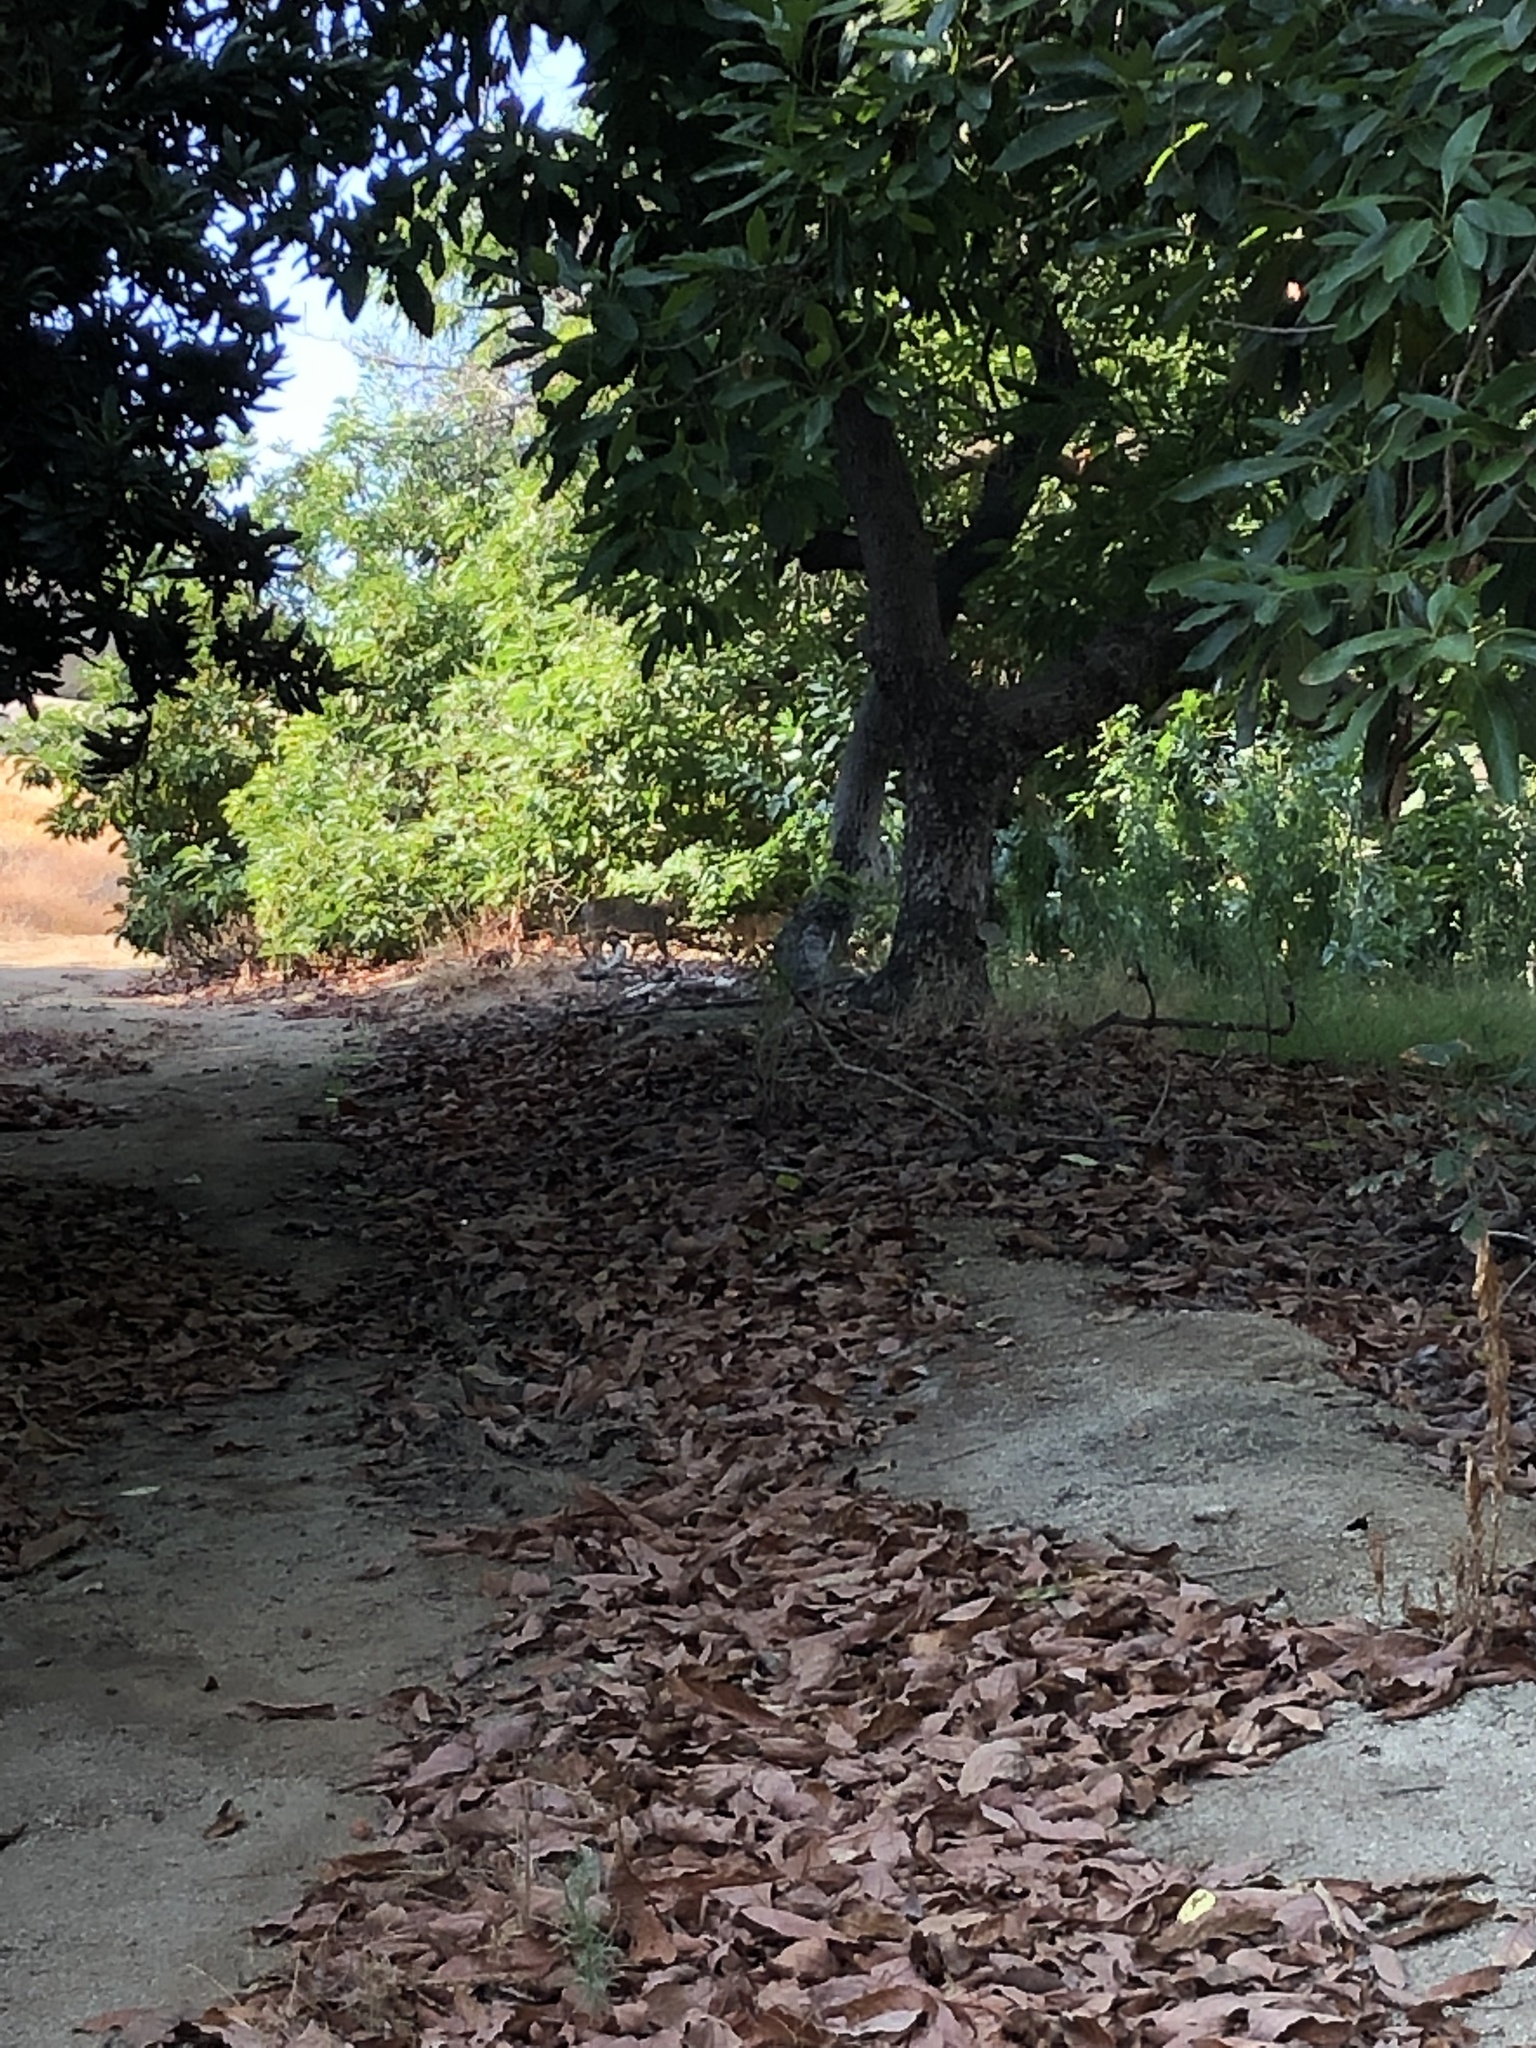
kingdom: Animalia
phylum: Chordata
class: Mammalia
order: Carnivora
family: Felidae
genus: Lynx
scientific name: Lynx rufus
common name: Bobcat
